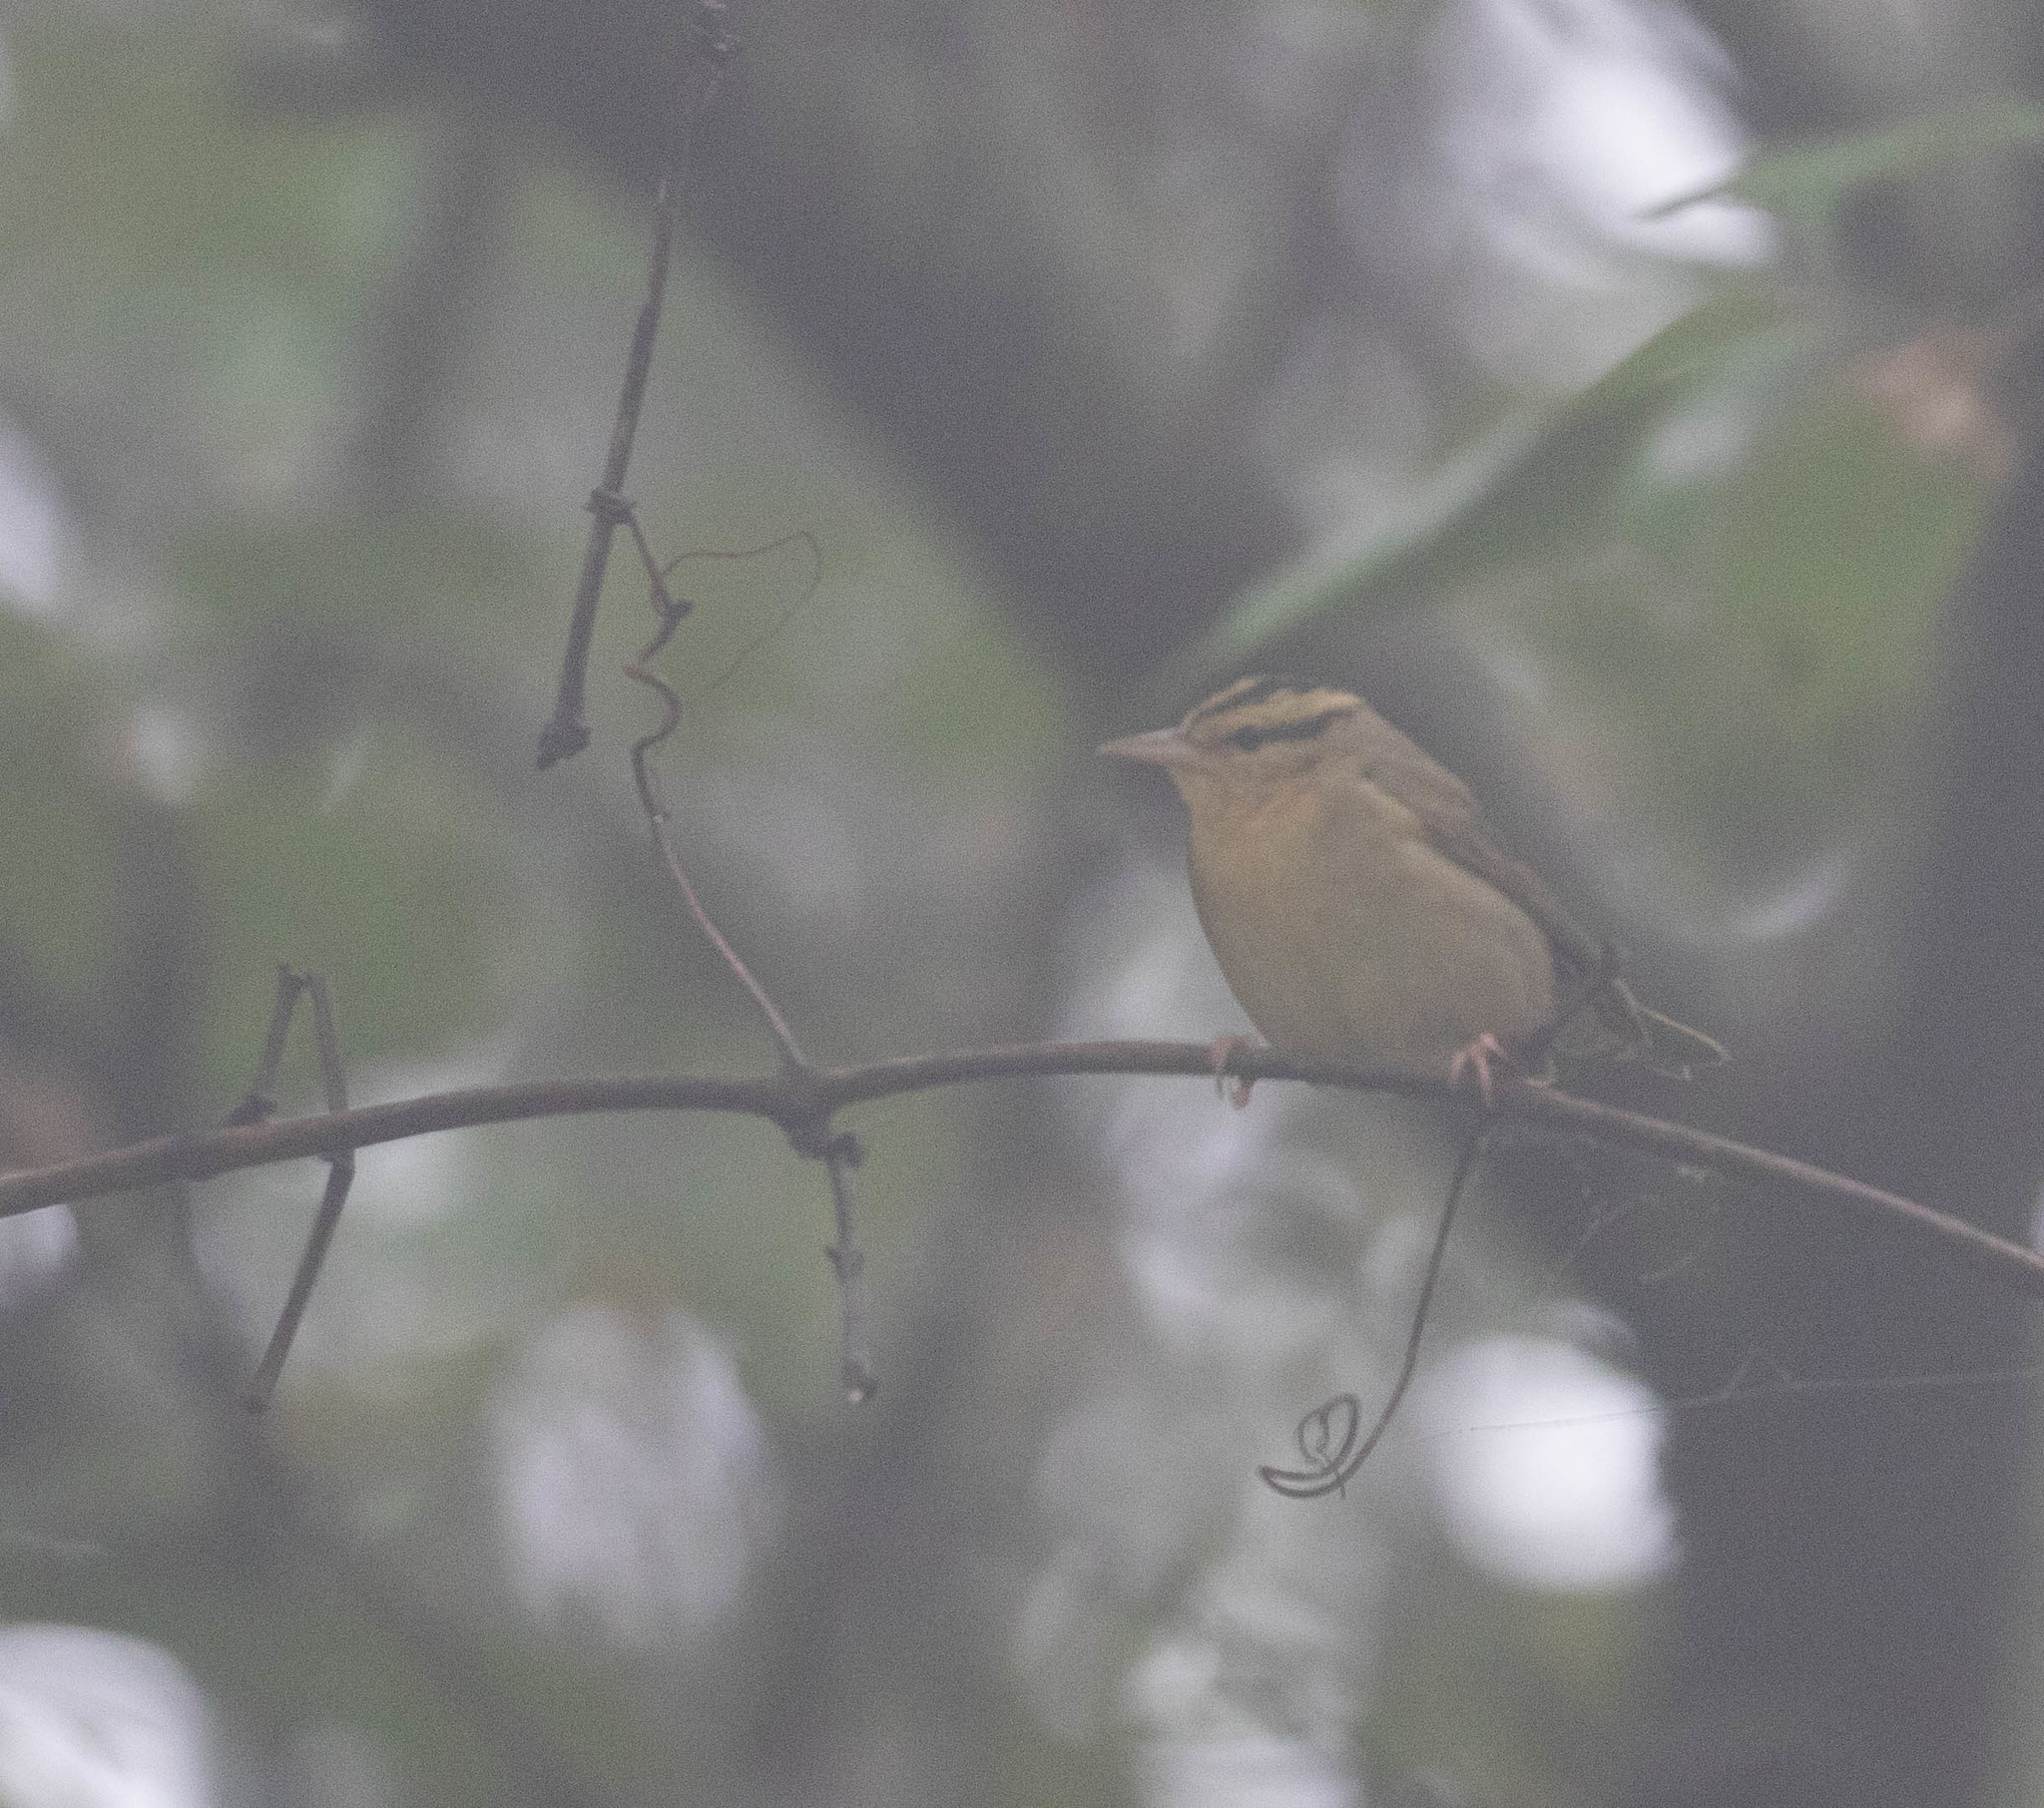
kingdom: Animalia
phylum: Chordata
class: Aves
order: Passeriformes
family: Parulidae
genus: Helmitheros
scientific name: Helmitheros vermivorum
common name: Worm-eating warbler
